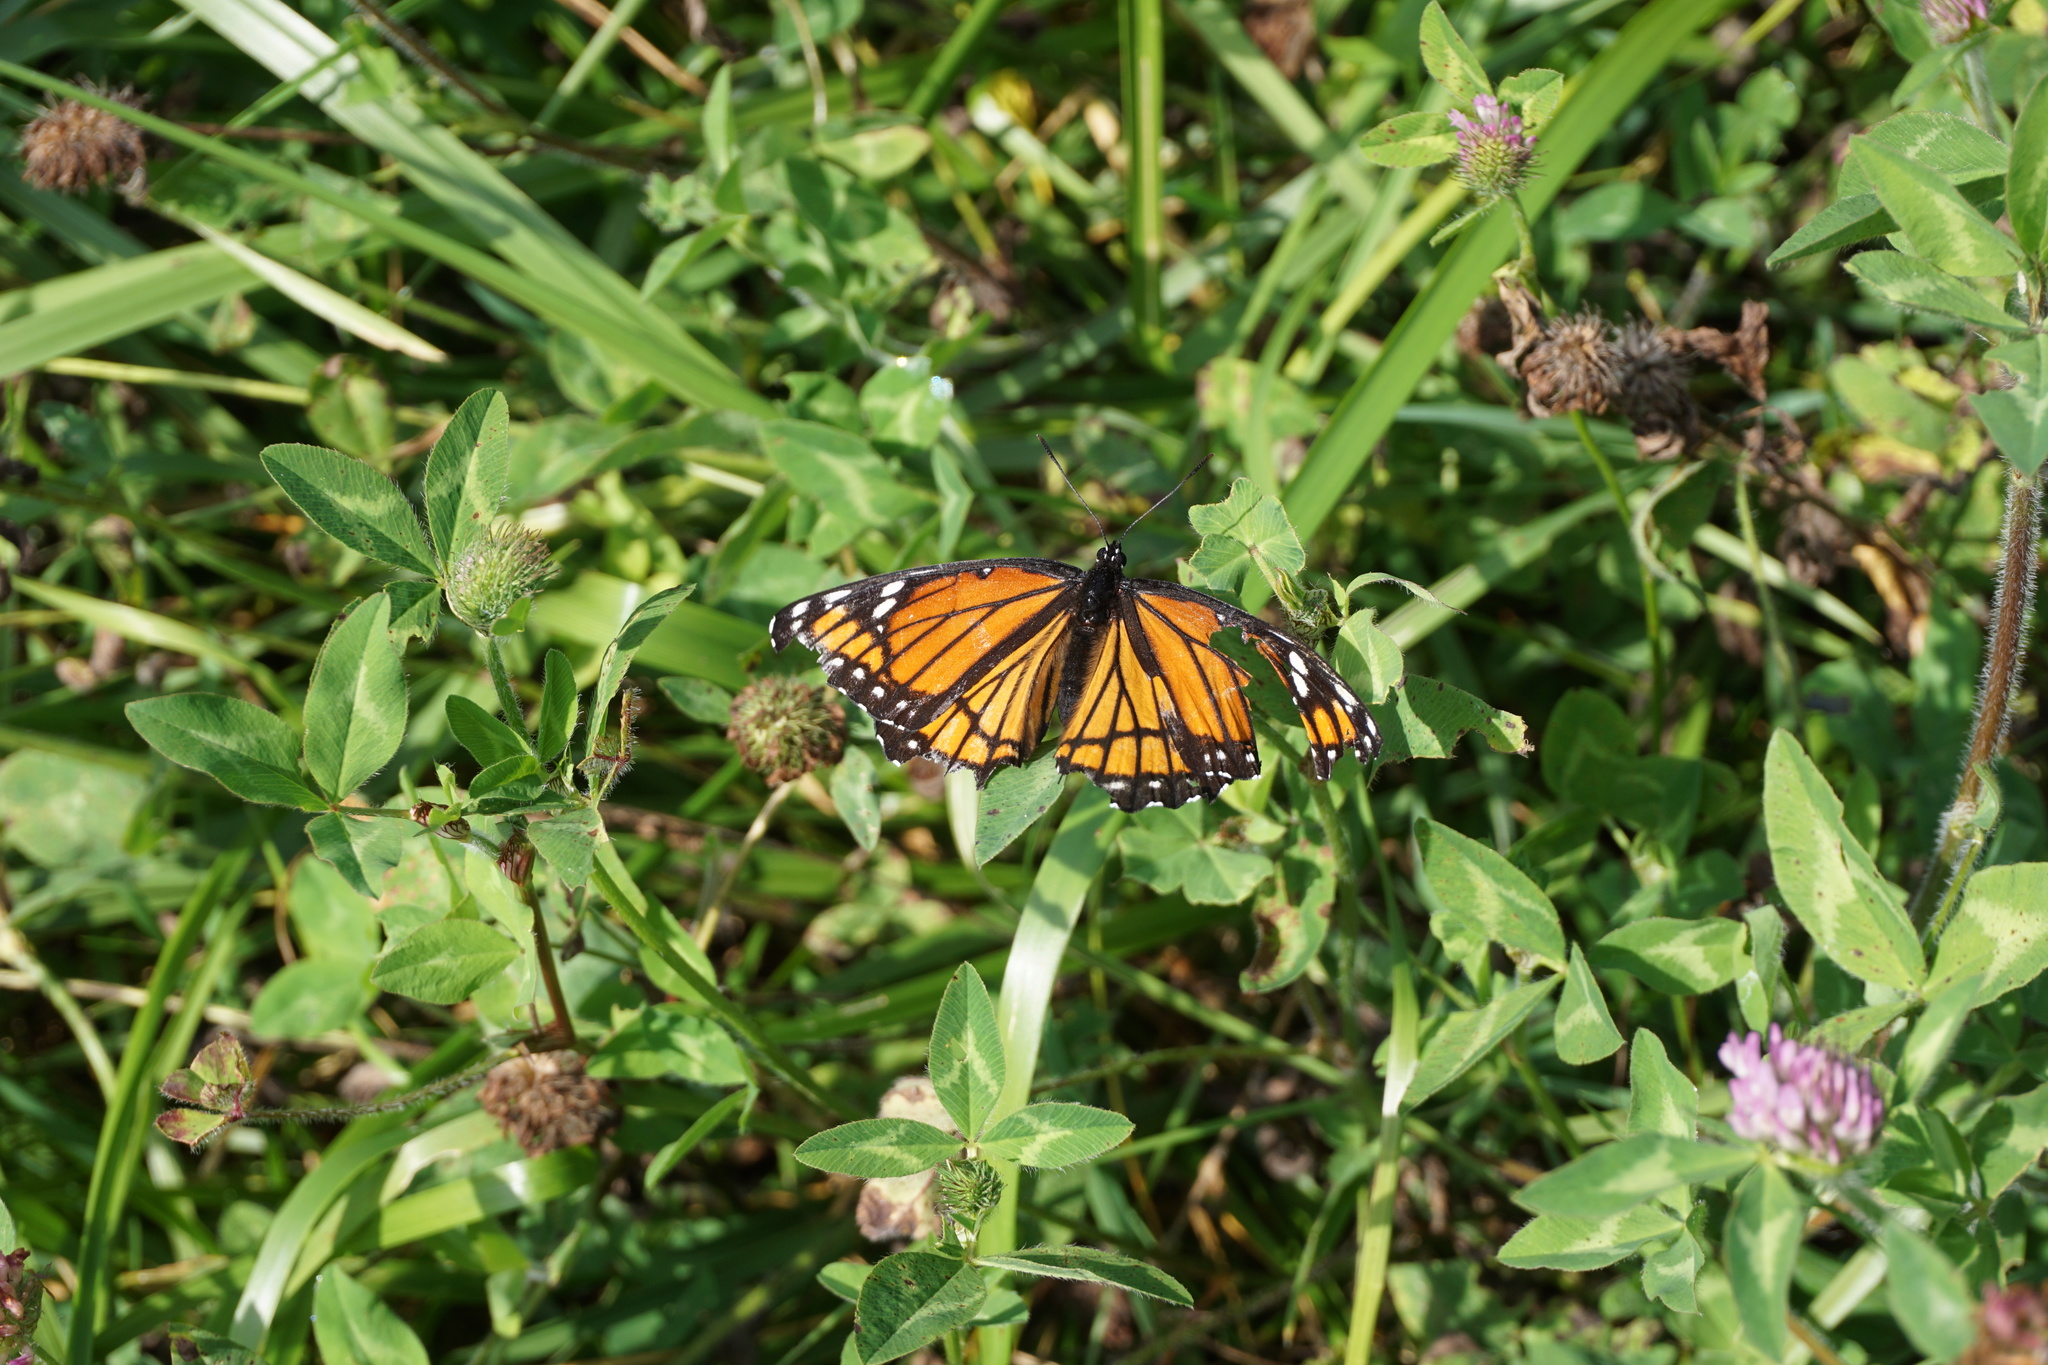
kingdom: Animalia
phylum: Arthropoda
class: Insecta
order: Lepidoptera
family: Nymphalidae
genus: Limenitis
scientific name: Limenitis archippus
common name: Viceroy
